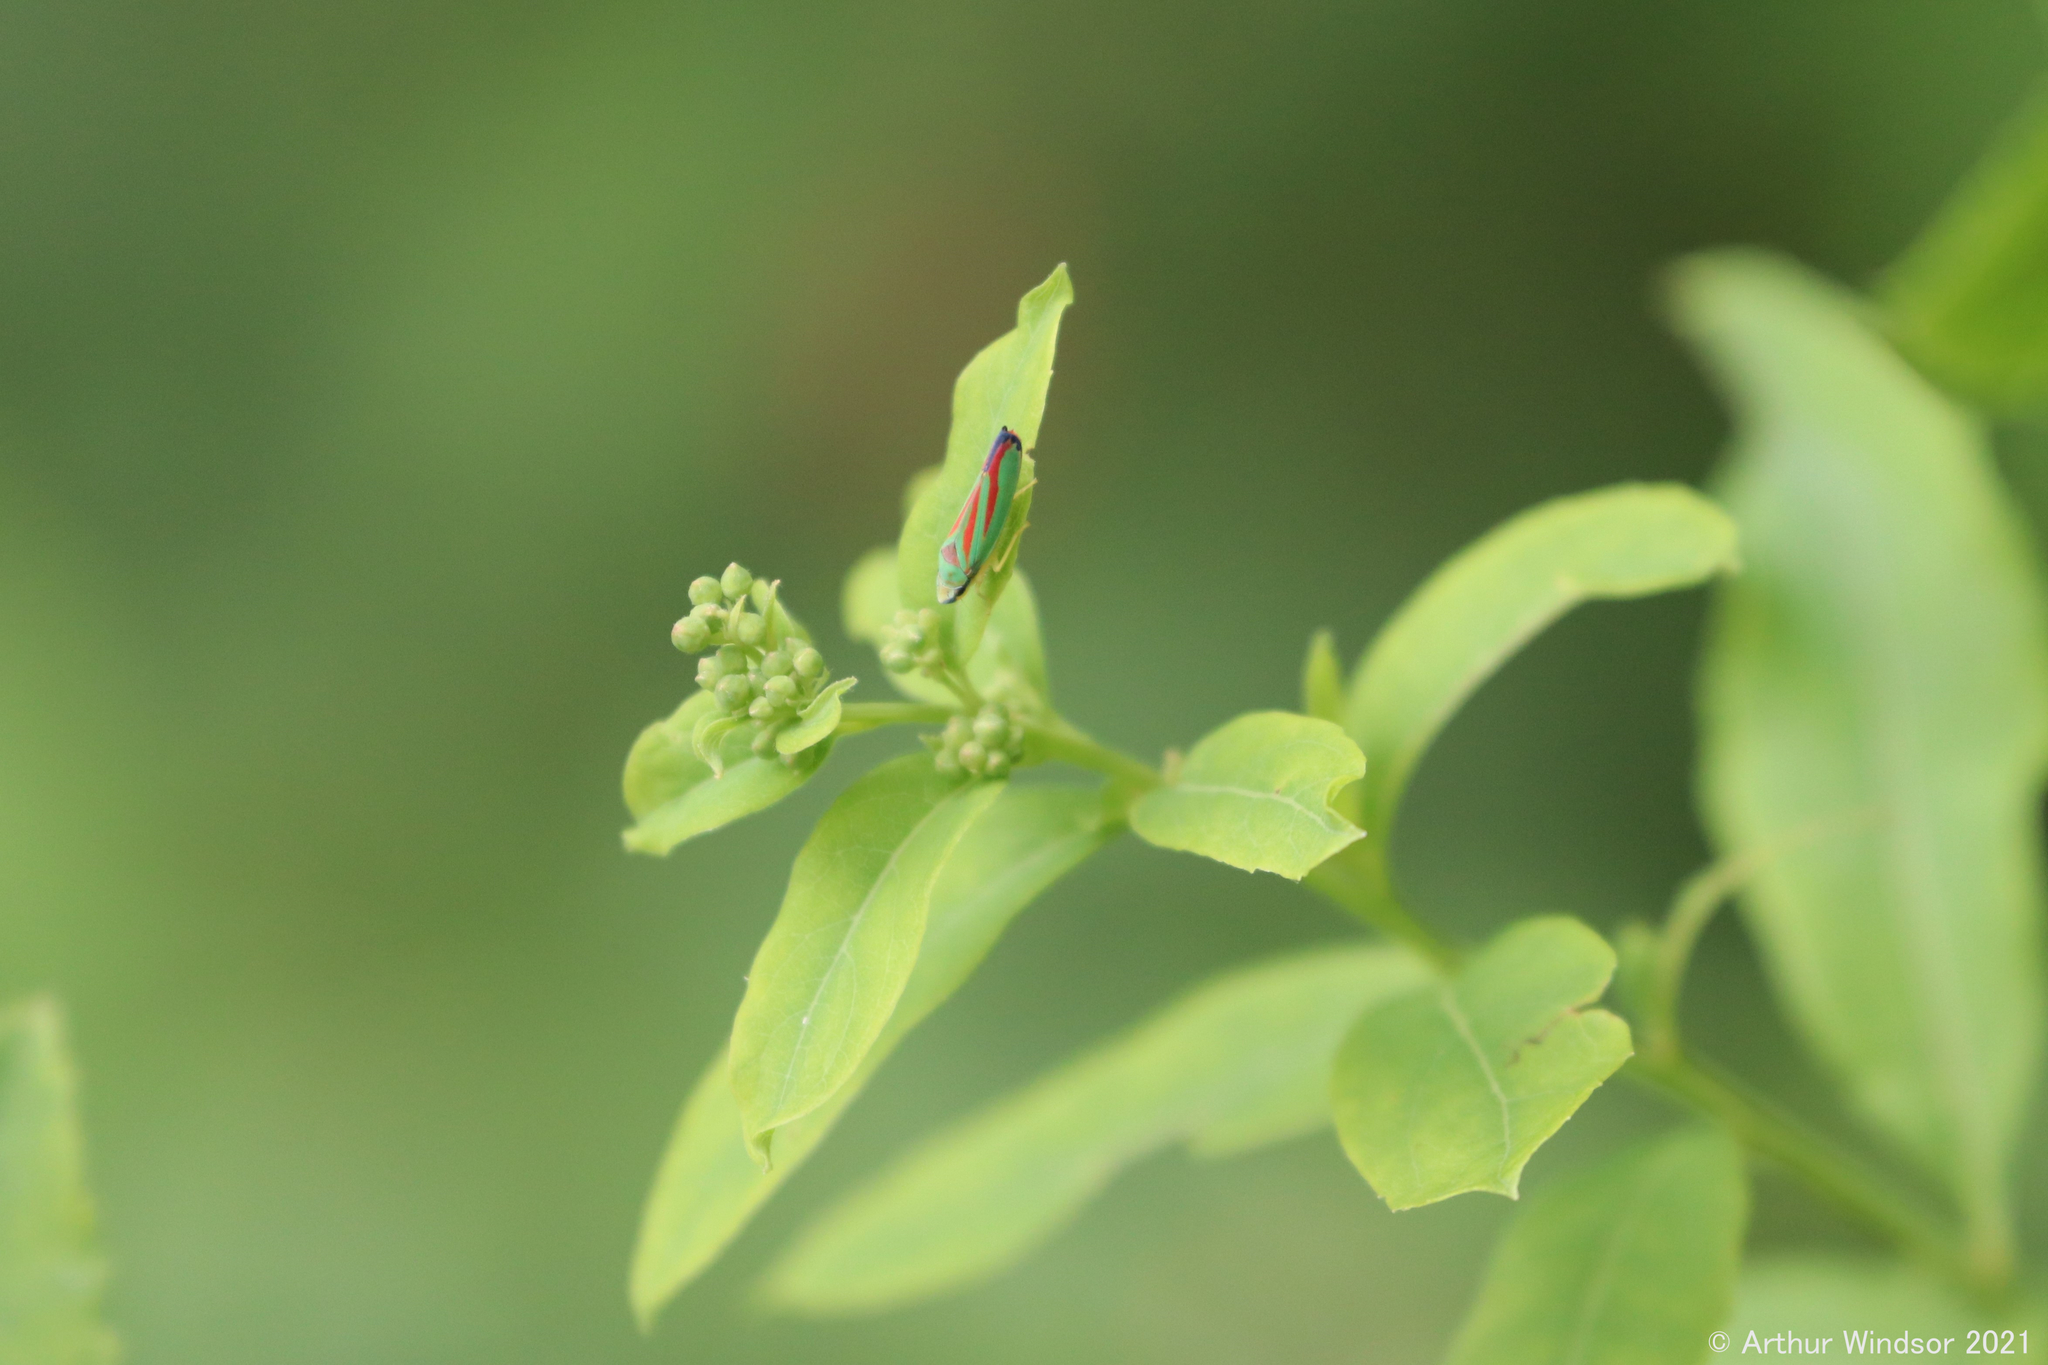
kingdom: Animalia
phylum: Arthropoda
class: Insecta
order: Hemiptera
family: Cicadellidae
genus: Graphocephala
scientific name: Graphocephala fennahi
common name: Rhododendron leafhopper
